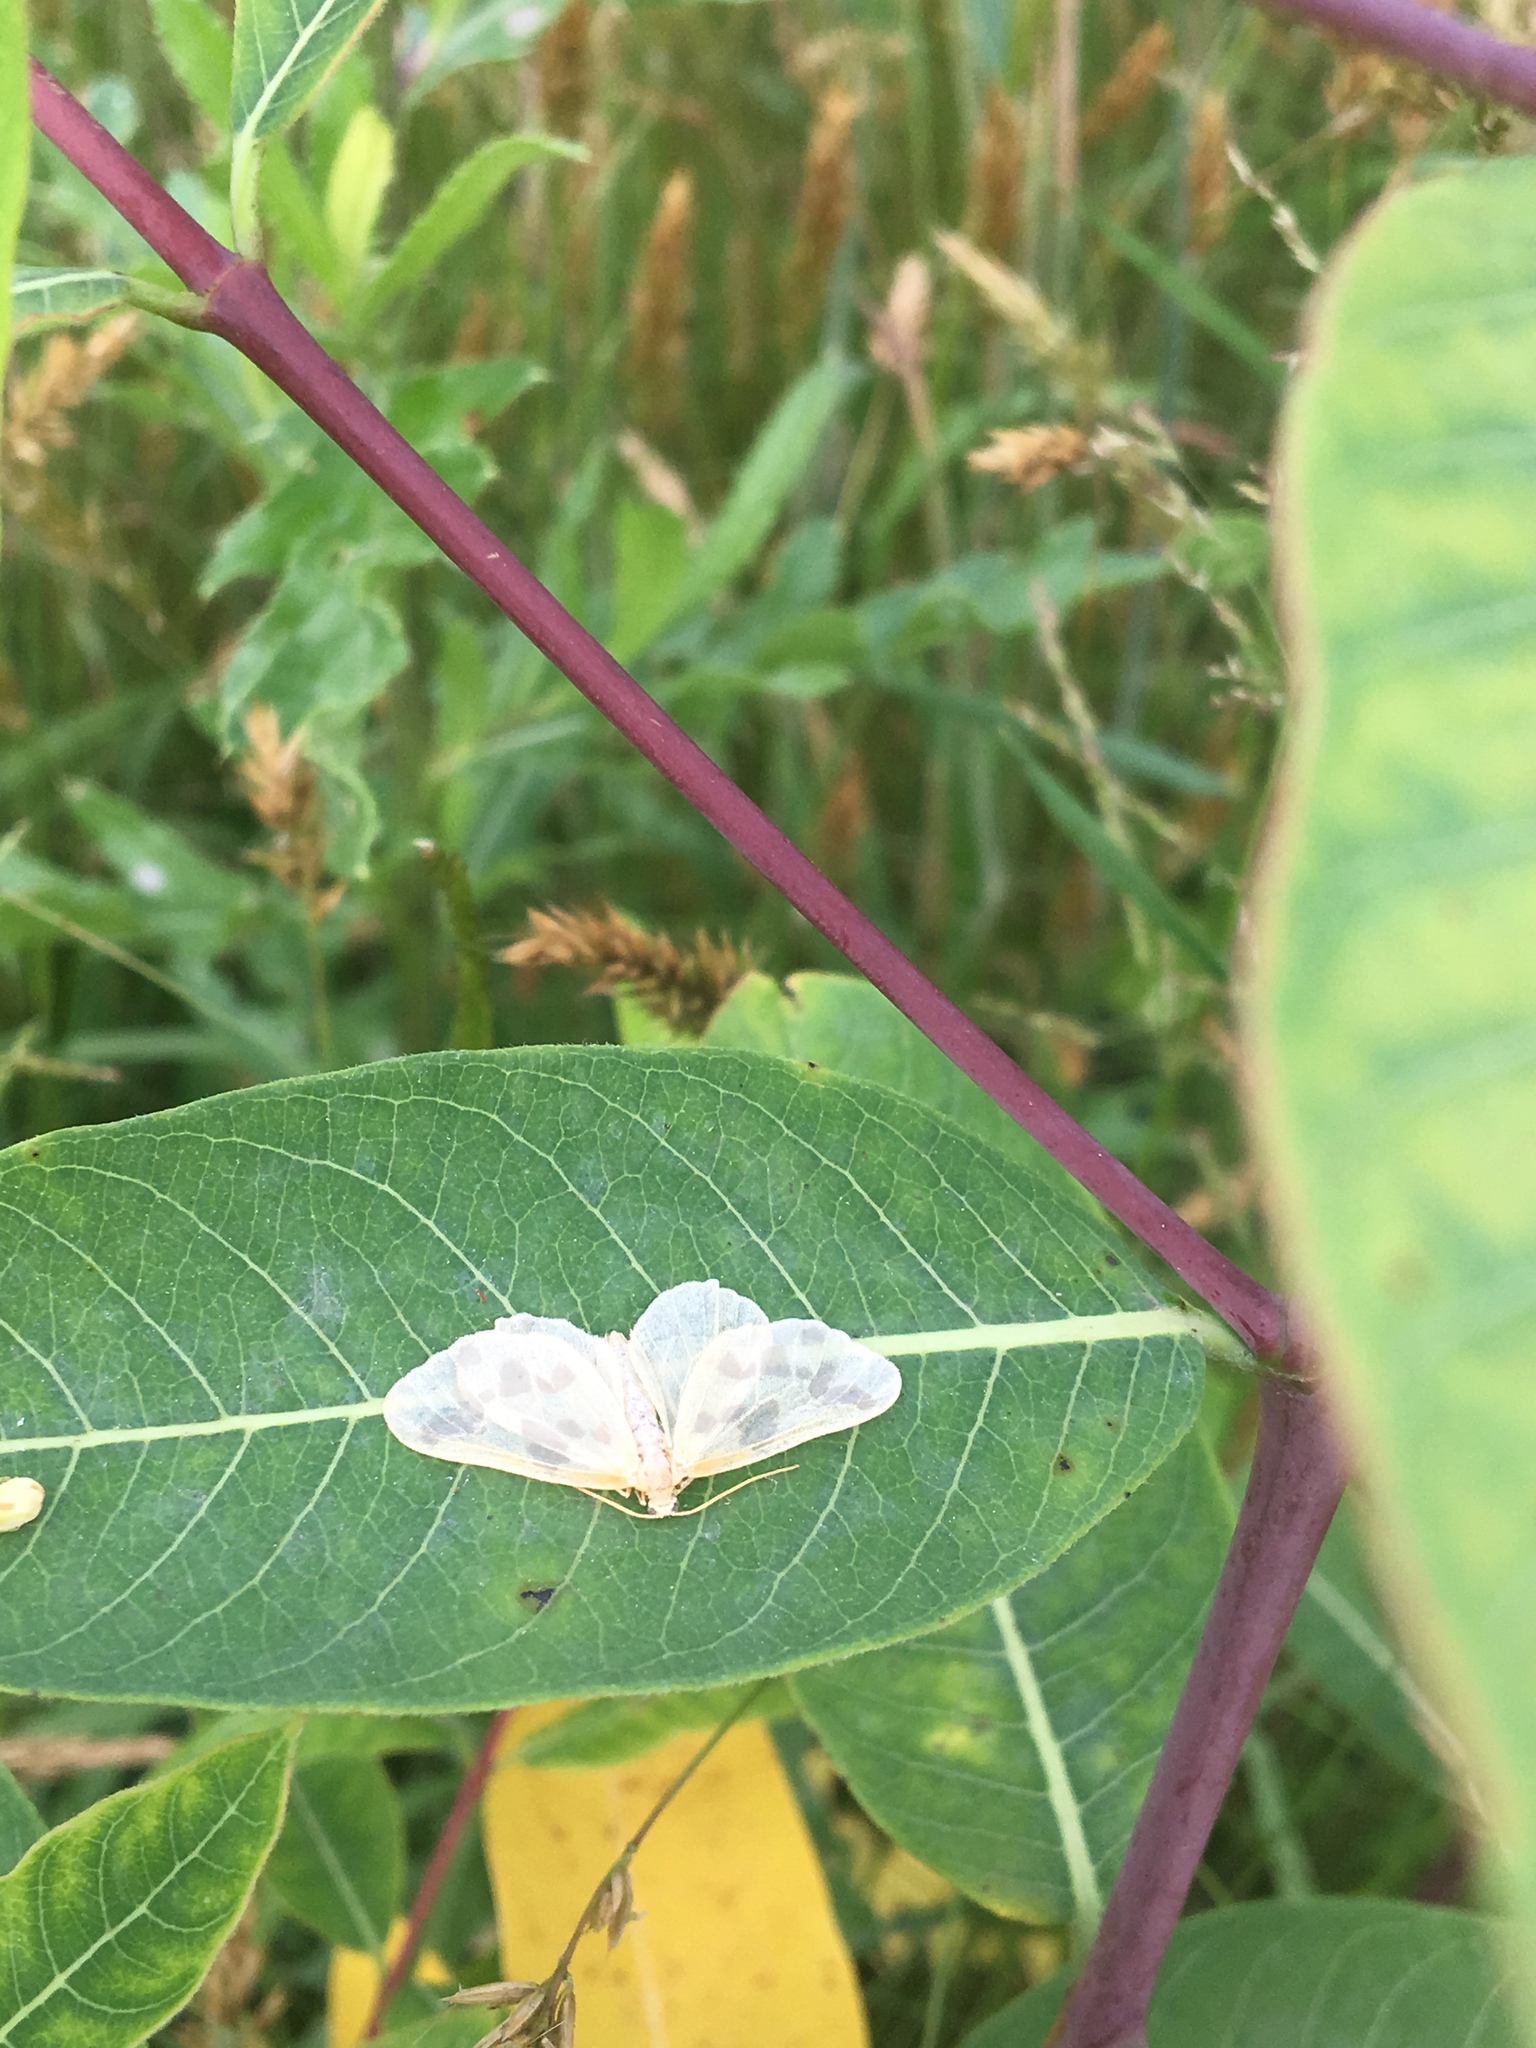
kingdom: Animalia
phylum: Arthropoda
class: Insecta
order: Lepidoptera
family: Geometridae
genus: Eubaphe
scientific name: Eubaphe mendica
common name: Beggar
